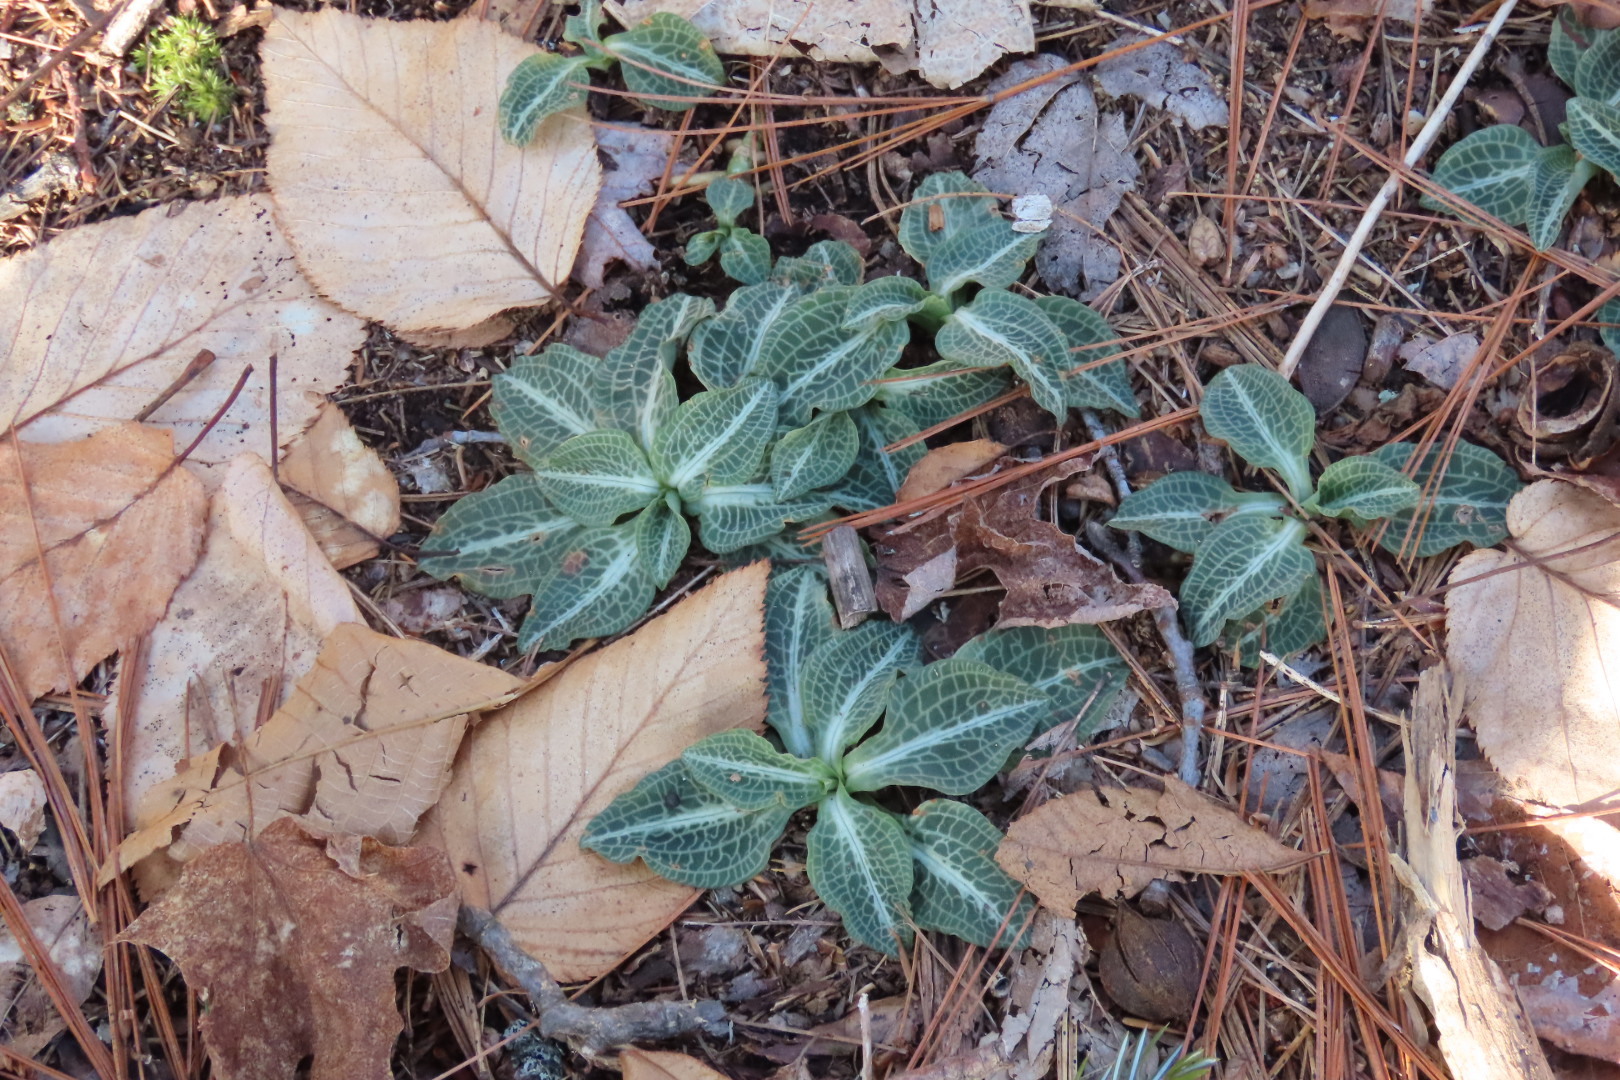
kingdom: Plantae
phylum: Tracheophyta
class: Liliopsida
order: Asparagales
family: Orchidaceae
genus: Goodyera
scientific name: Goodyera pubescens
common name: Downy rattlesnake-plantain
